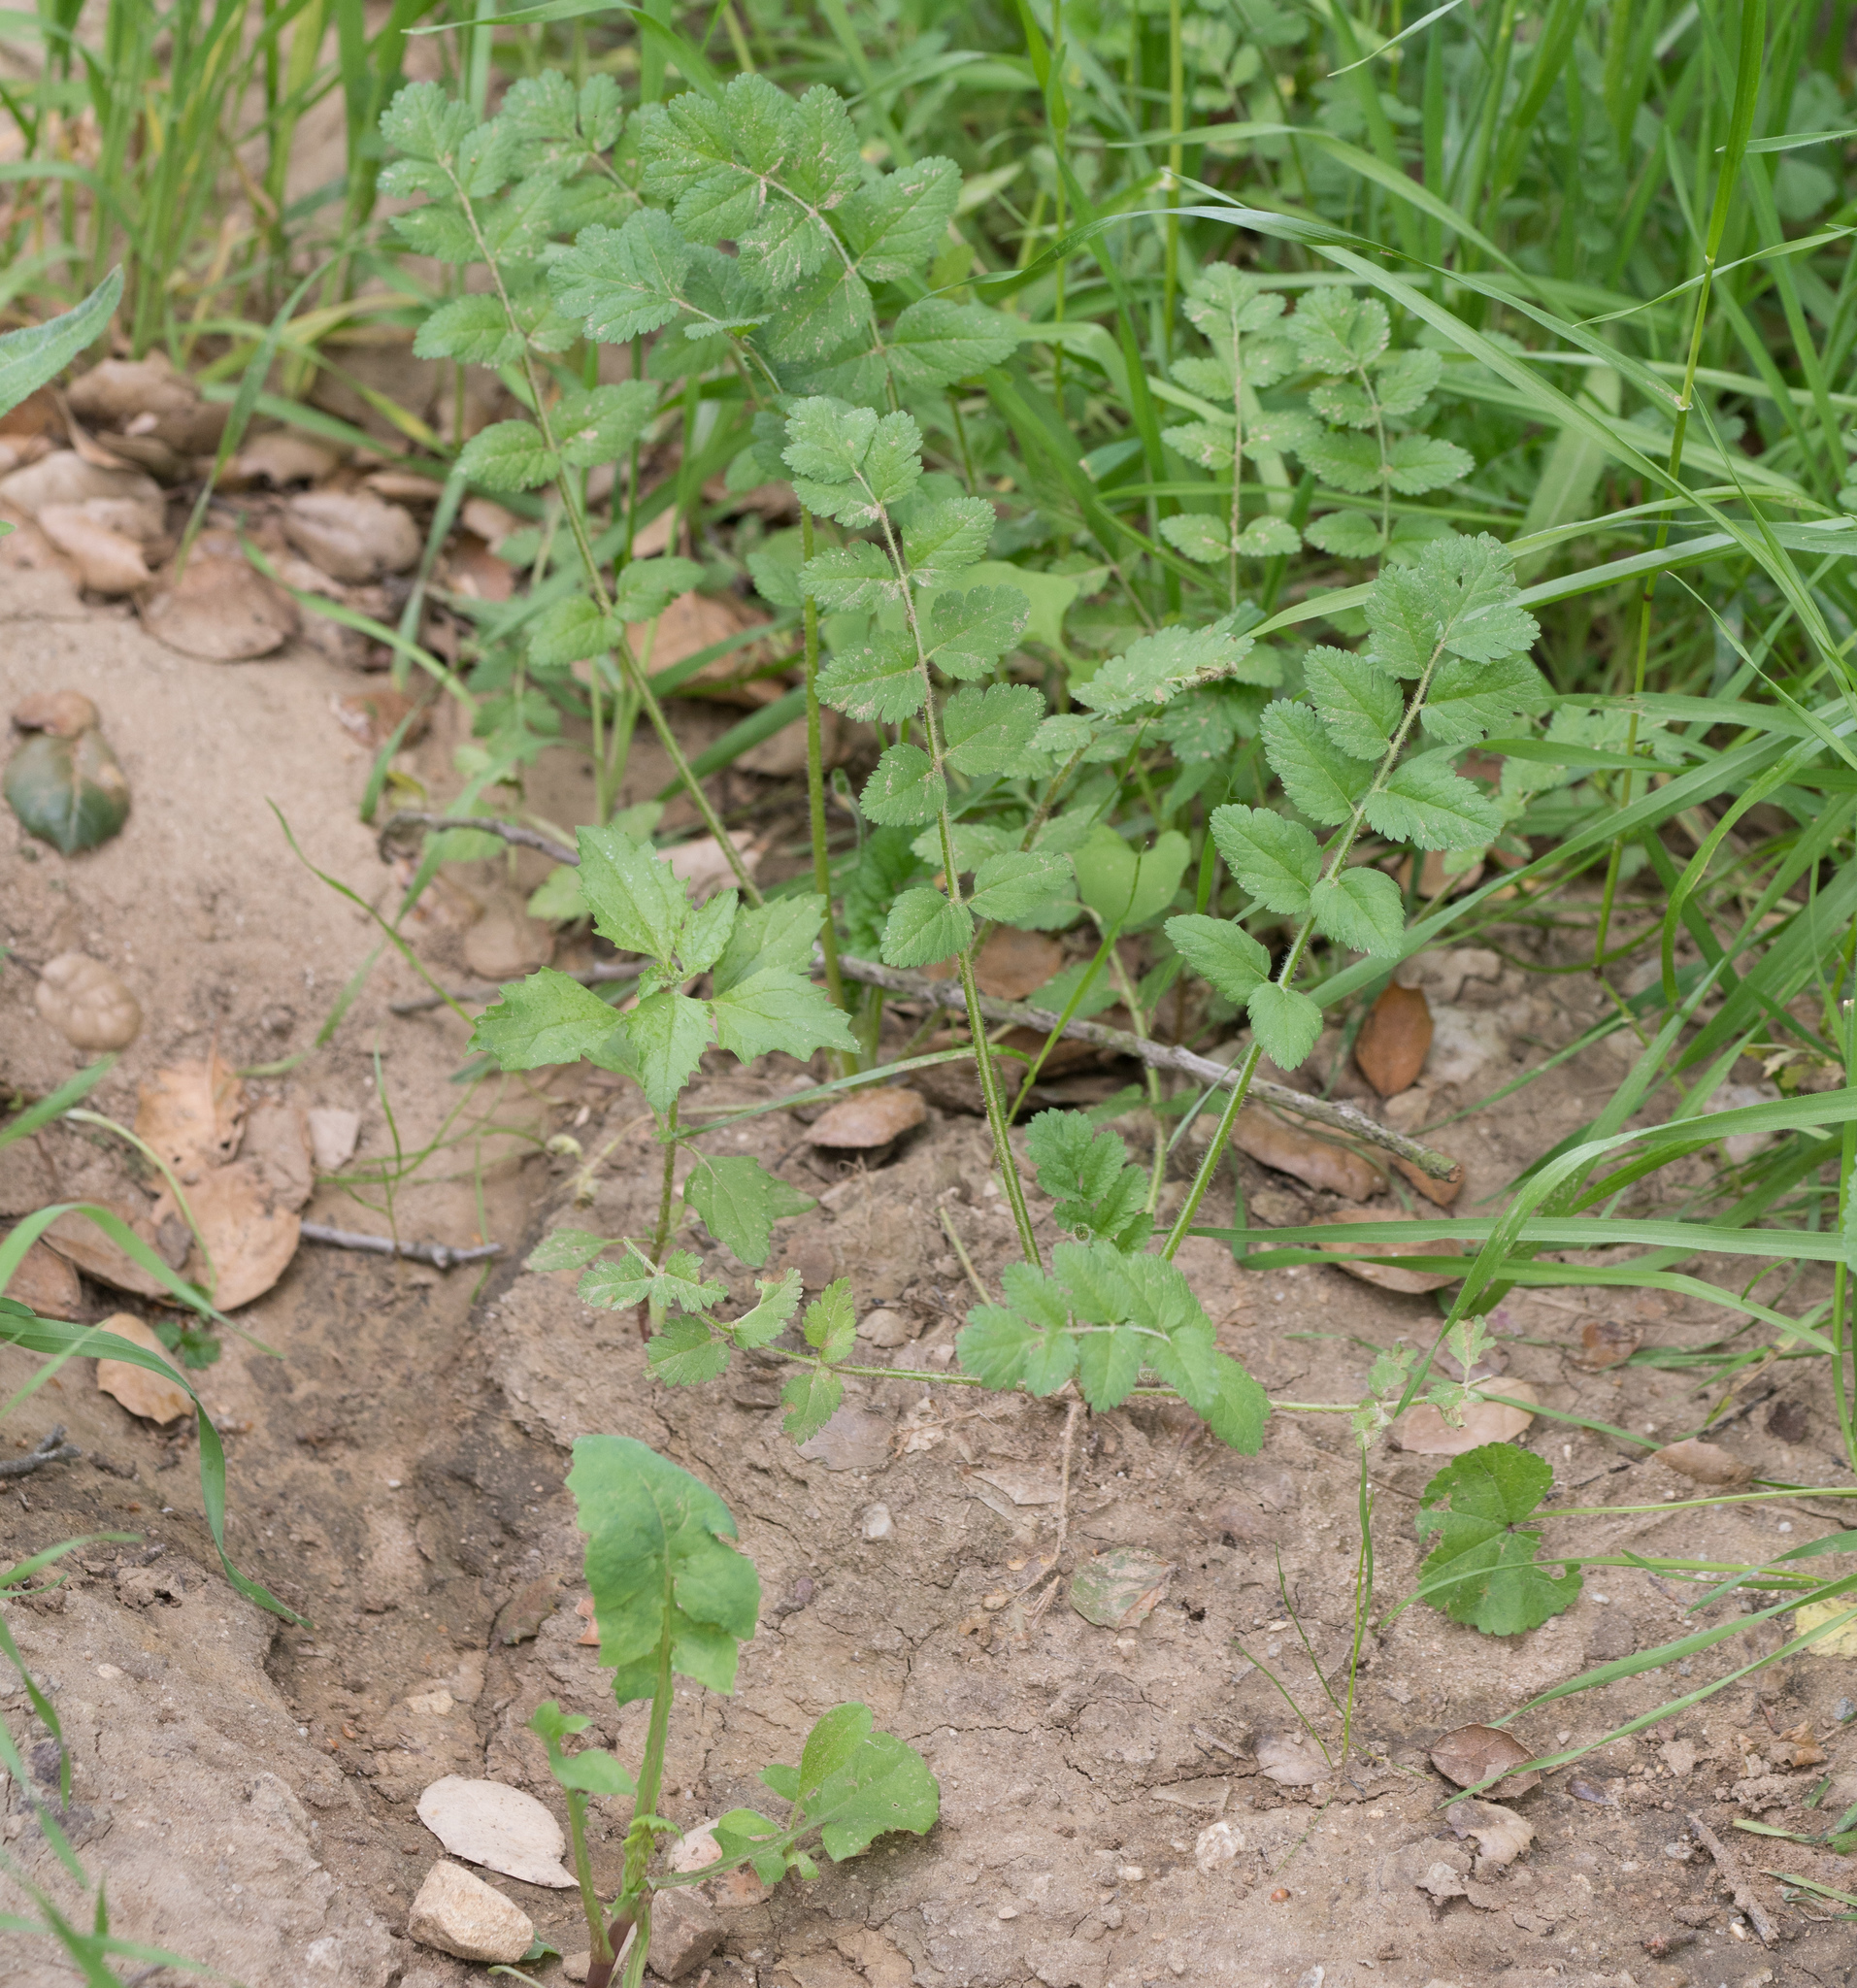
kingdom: Plantae
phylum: Tracheophyta
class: Magnoliopsida
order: Geraniales
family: Geraniaceae
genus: Erodium
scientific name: Erodium moschatum
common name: Musk stork's-bill
